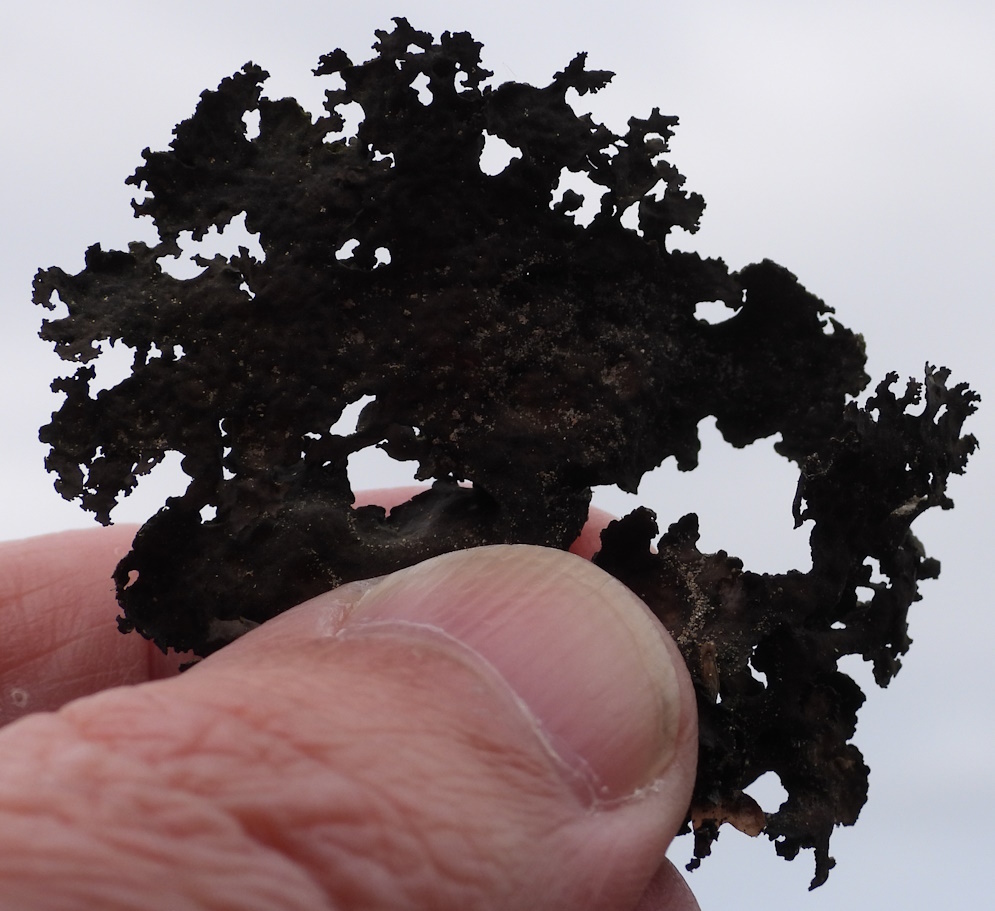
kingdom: Fungi
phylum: Ascomycota
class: Lecanoromycetes
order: Umbilicariales
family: Umbilicariaceae
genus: Umbilicaria
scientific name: Umbilicaria torrefacta
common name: Punctured rock tripe lichen
